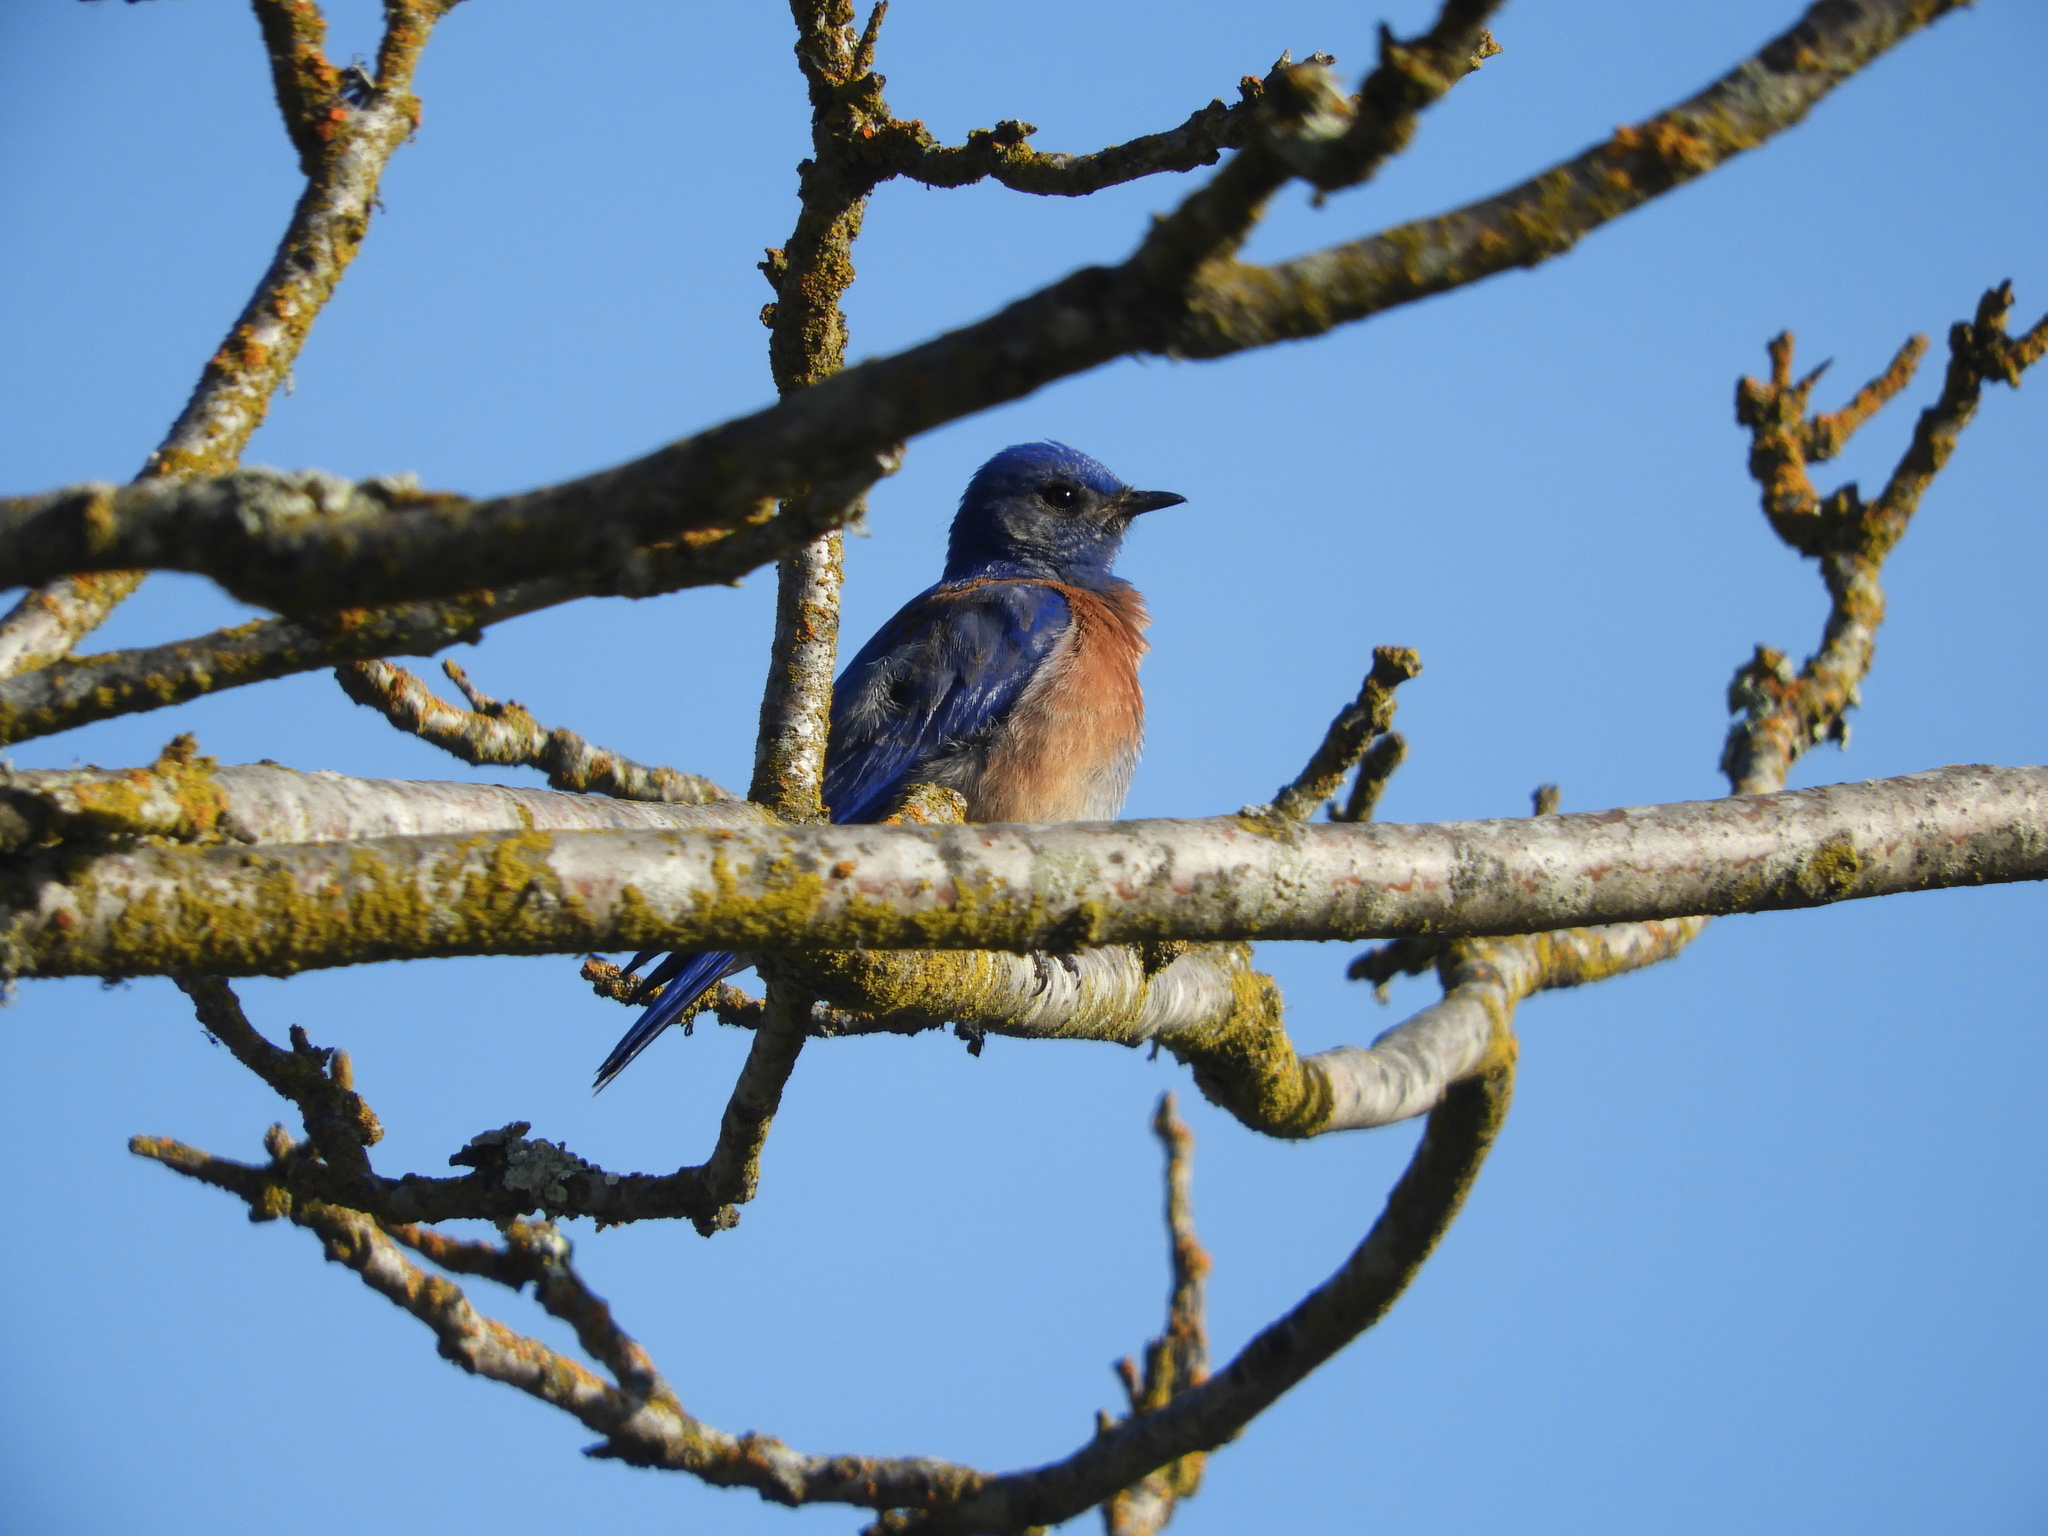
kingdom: Animalia
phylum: Chordata
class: Aves
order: Passeriformes
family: Turdidae
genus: Sialia
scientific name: Sialia mexicana
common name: Western bluebird
